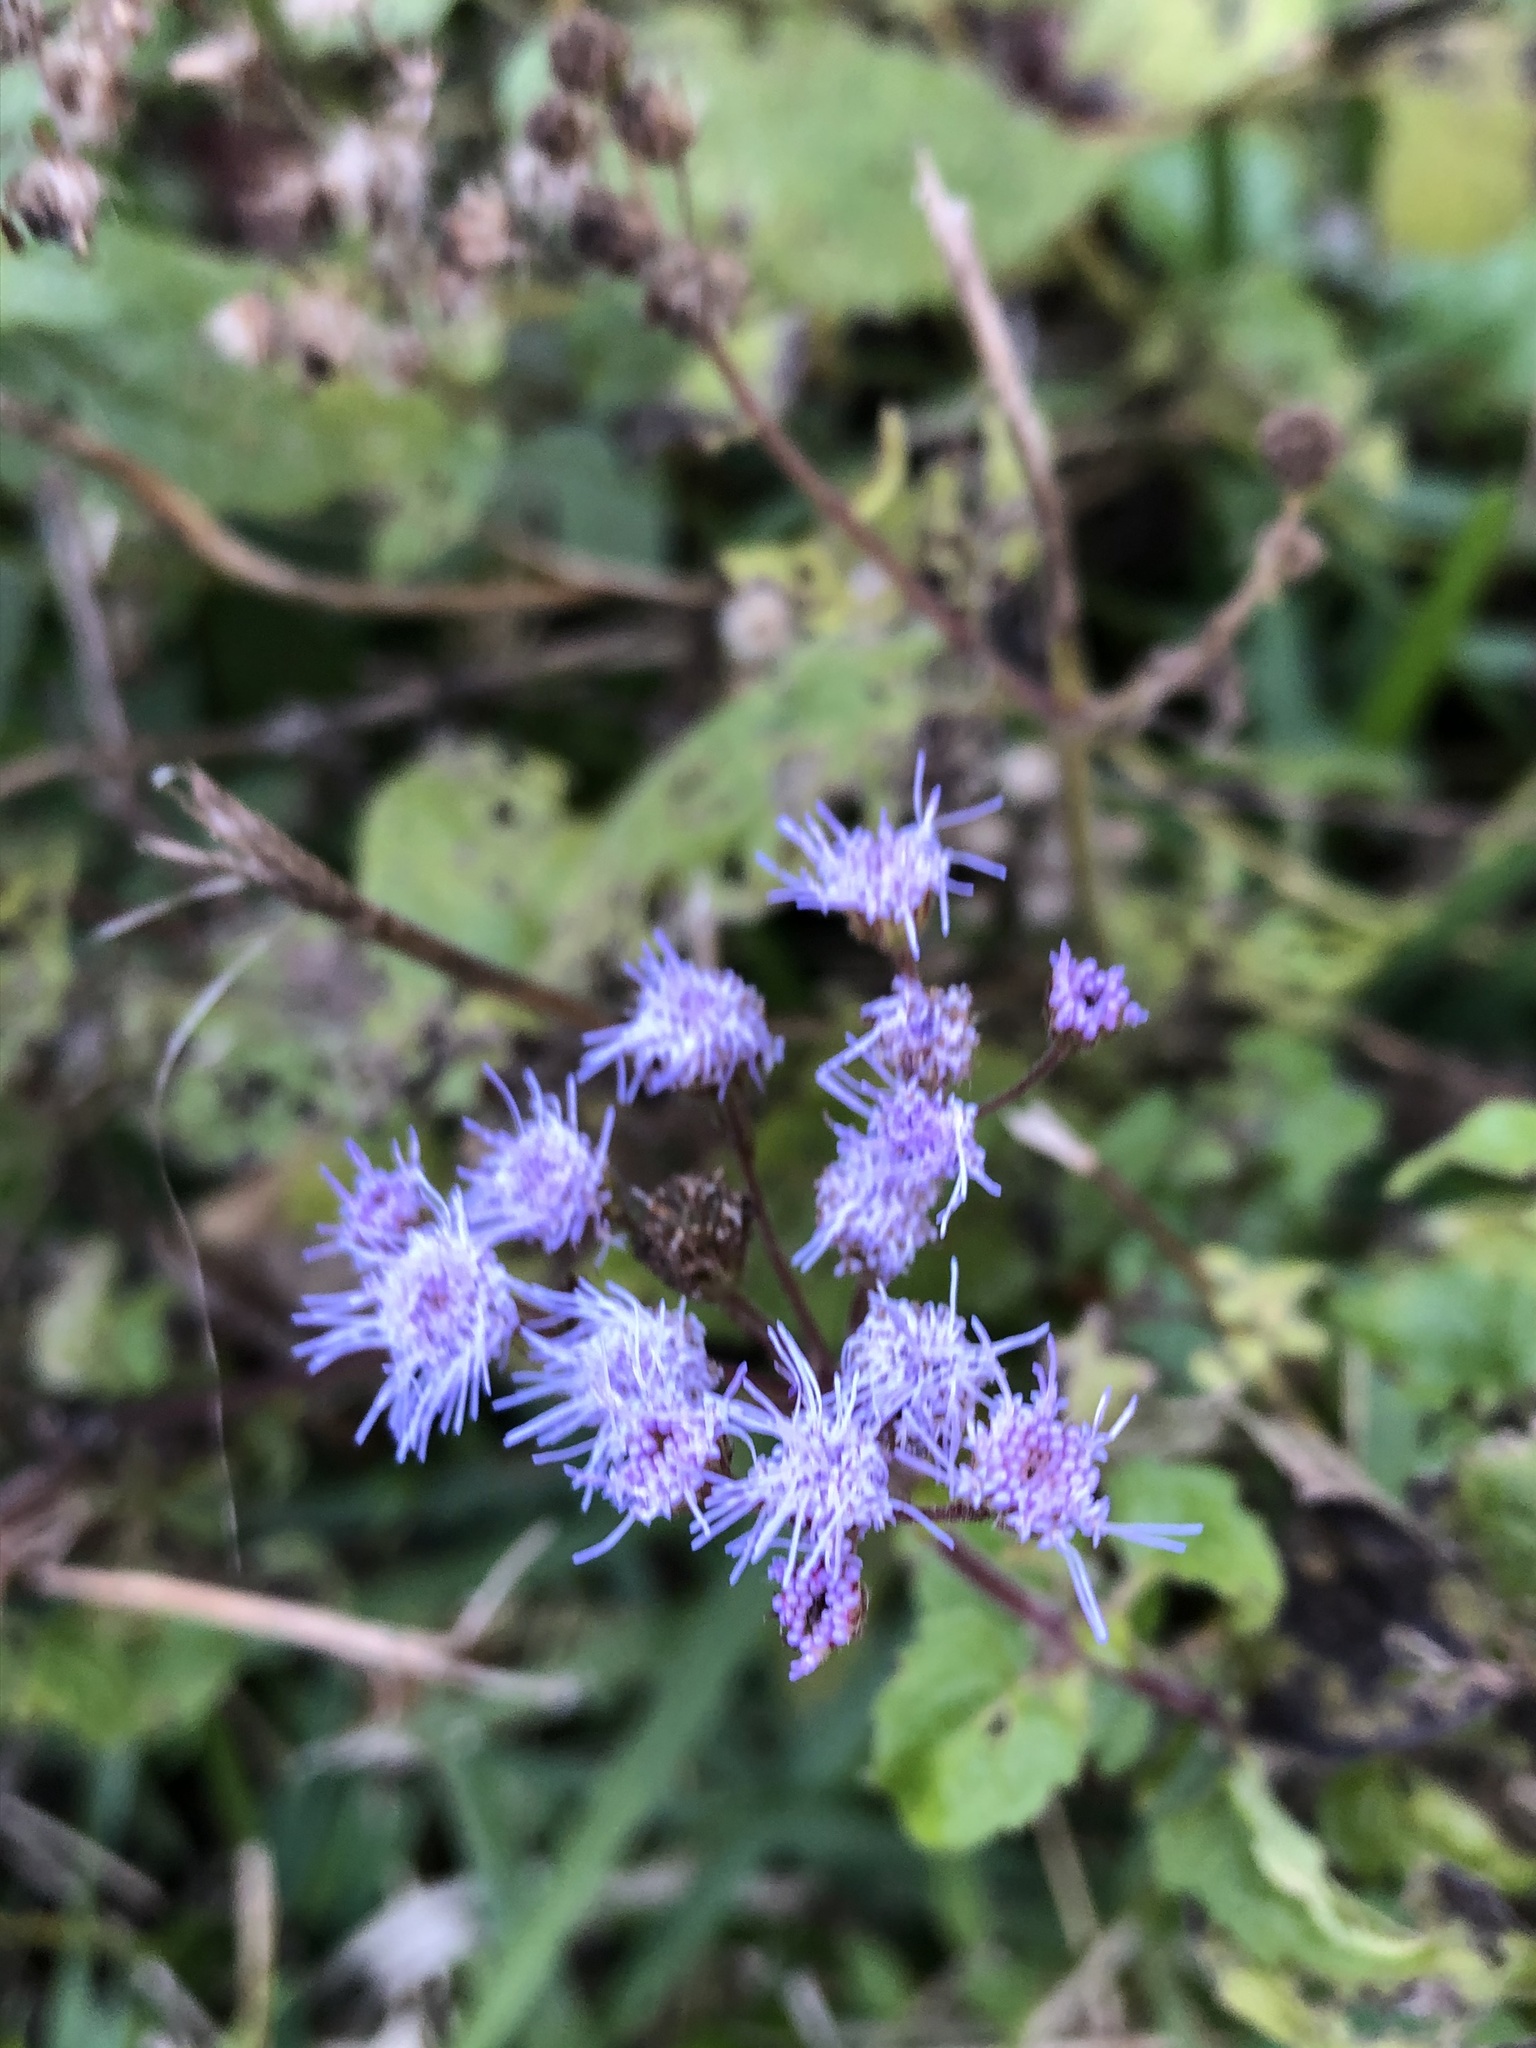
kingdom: Plantae
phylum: Tracheophyta
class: Magnoliopsida
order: Asterales
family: Asteraceae
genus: Conoclinium
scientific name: Conoclinium coelestinum
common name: Blue mistflower
